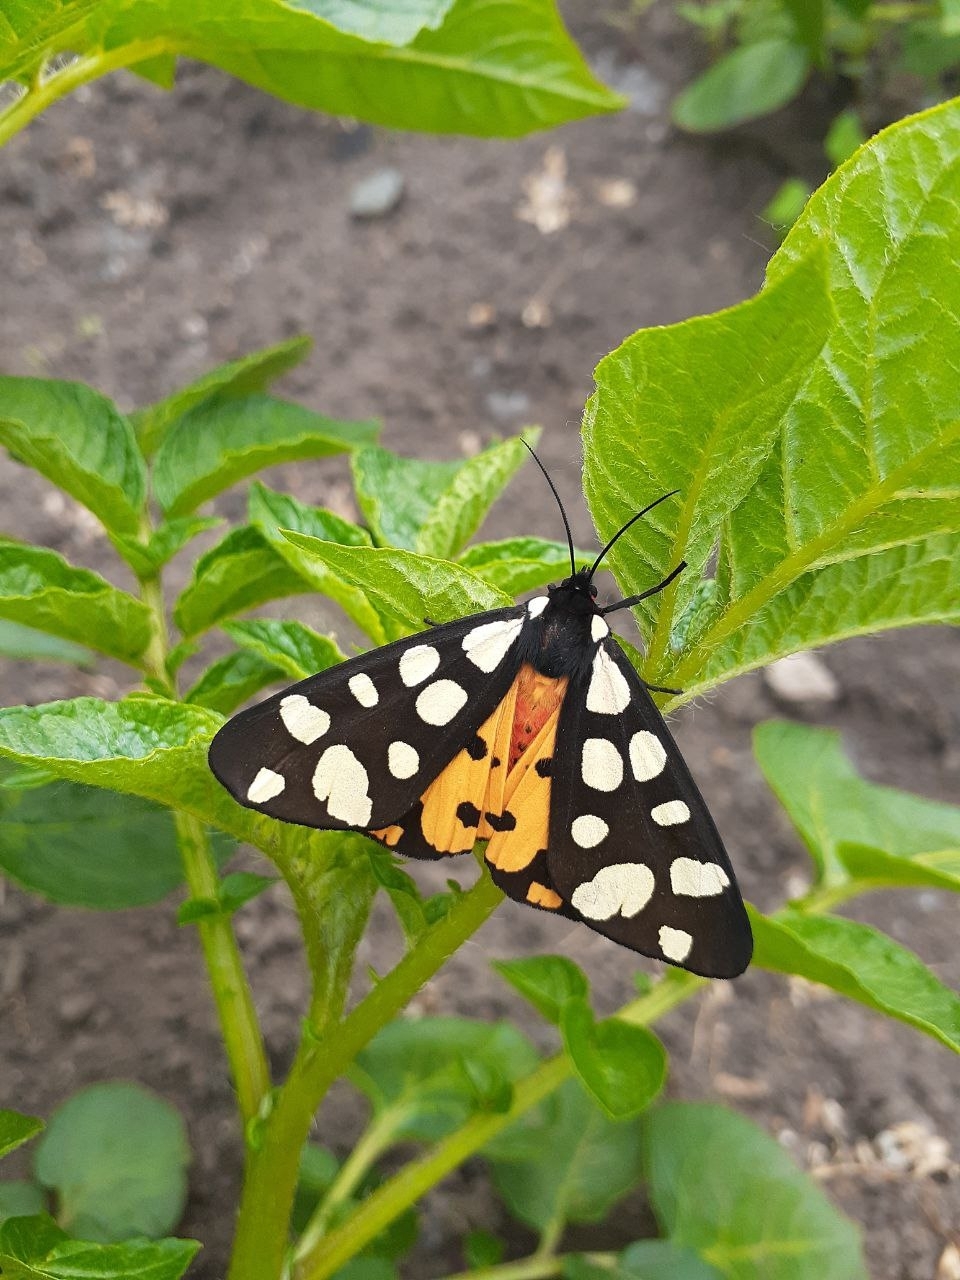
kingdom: Animalia
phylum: Arthropoda
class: Insecta
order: Lepidoptera
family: Erebidae
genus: Epicallia
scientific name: Epicallia villica
